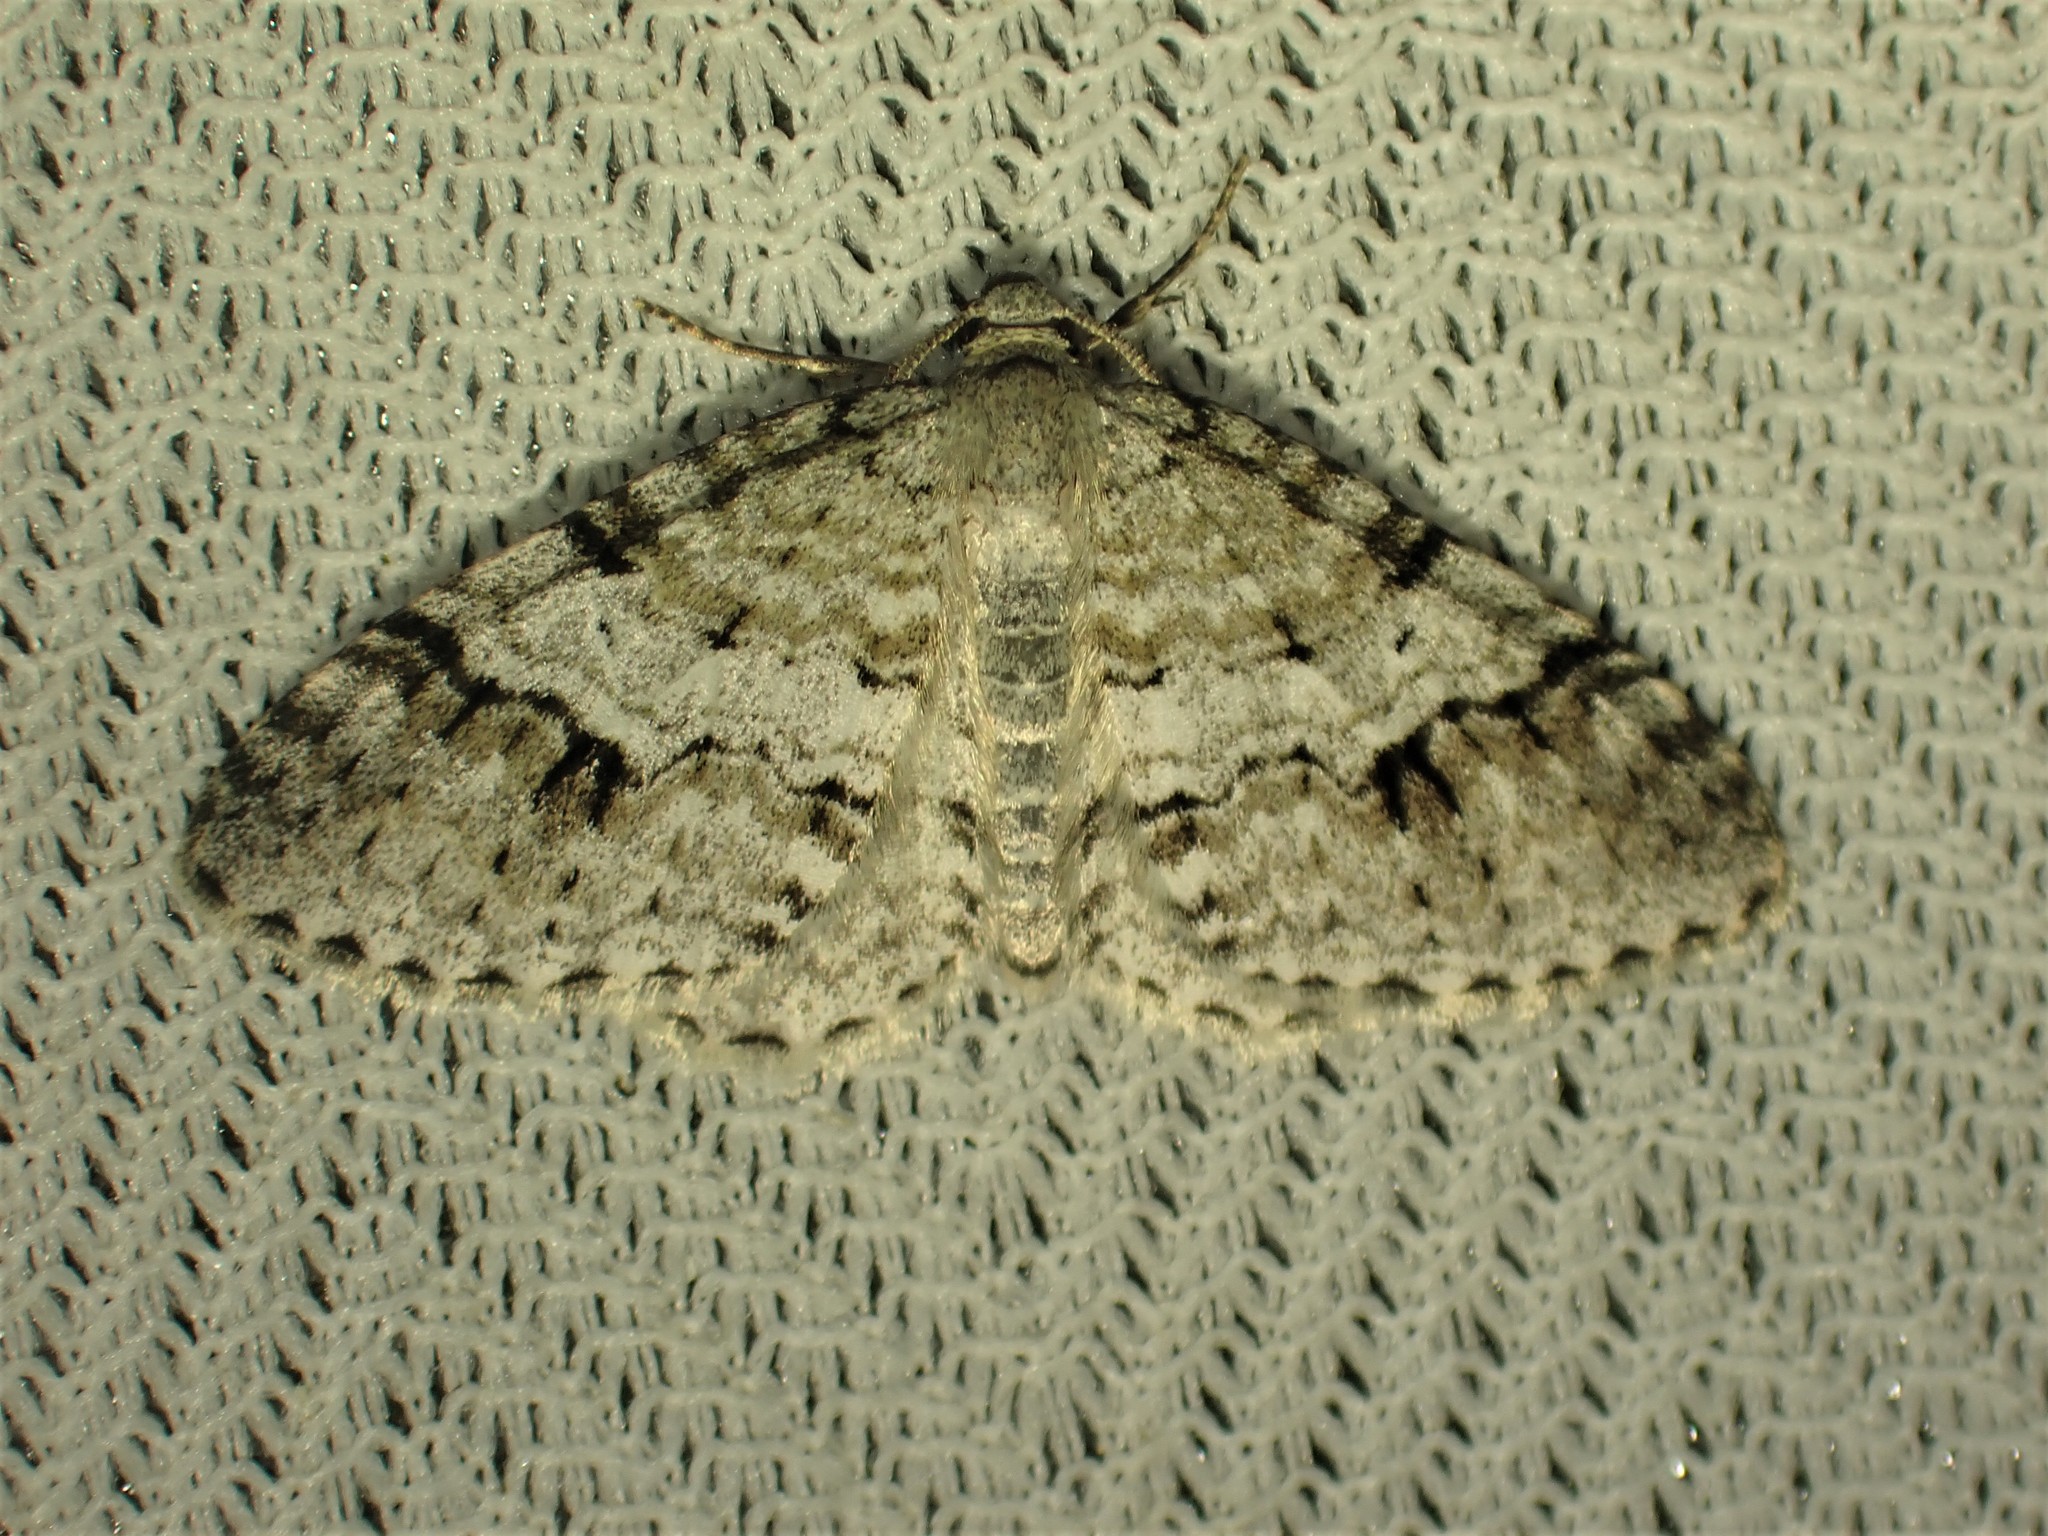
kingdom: Animalia
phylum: Arthropoda
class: Insecta
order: Lepidoptera
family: Geometridae
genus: Venusia
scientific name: Venusia cambrica
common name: Welsh wave
